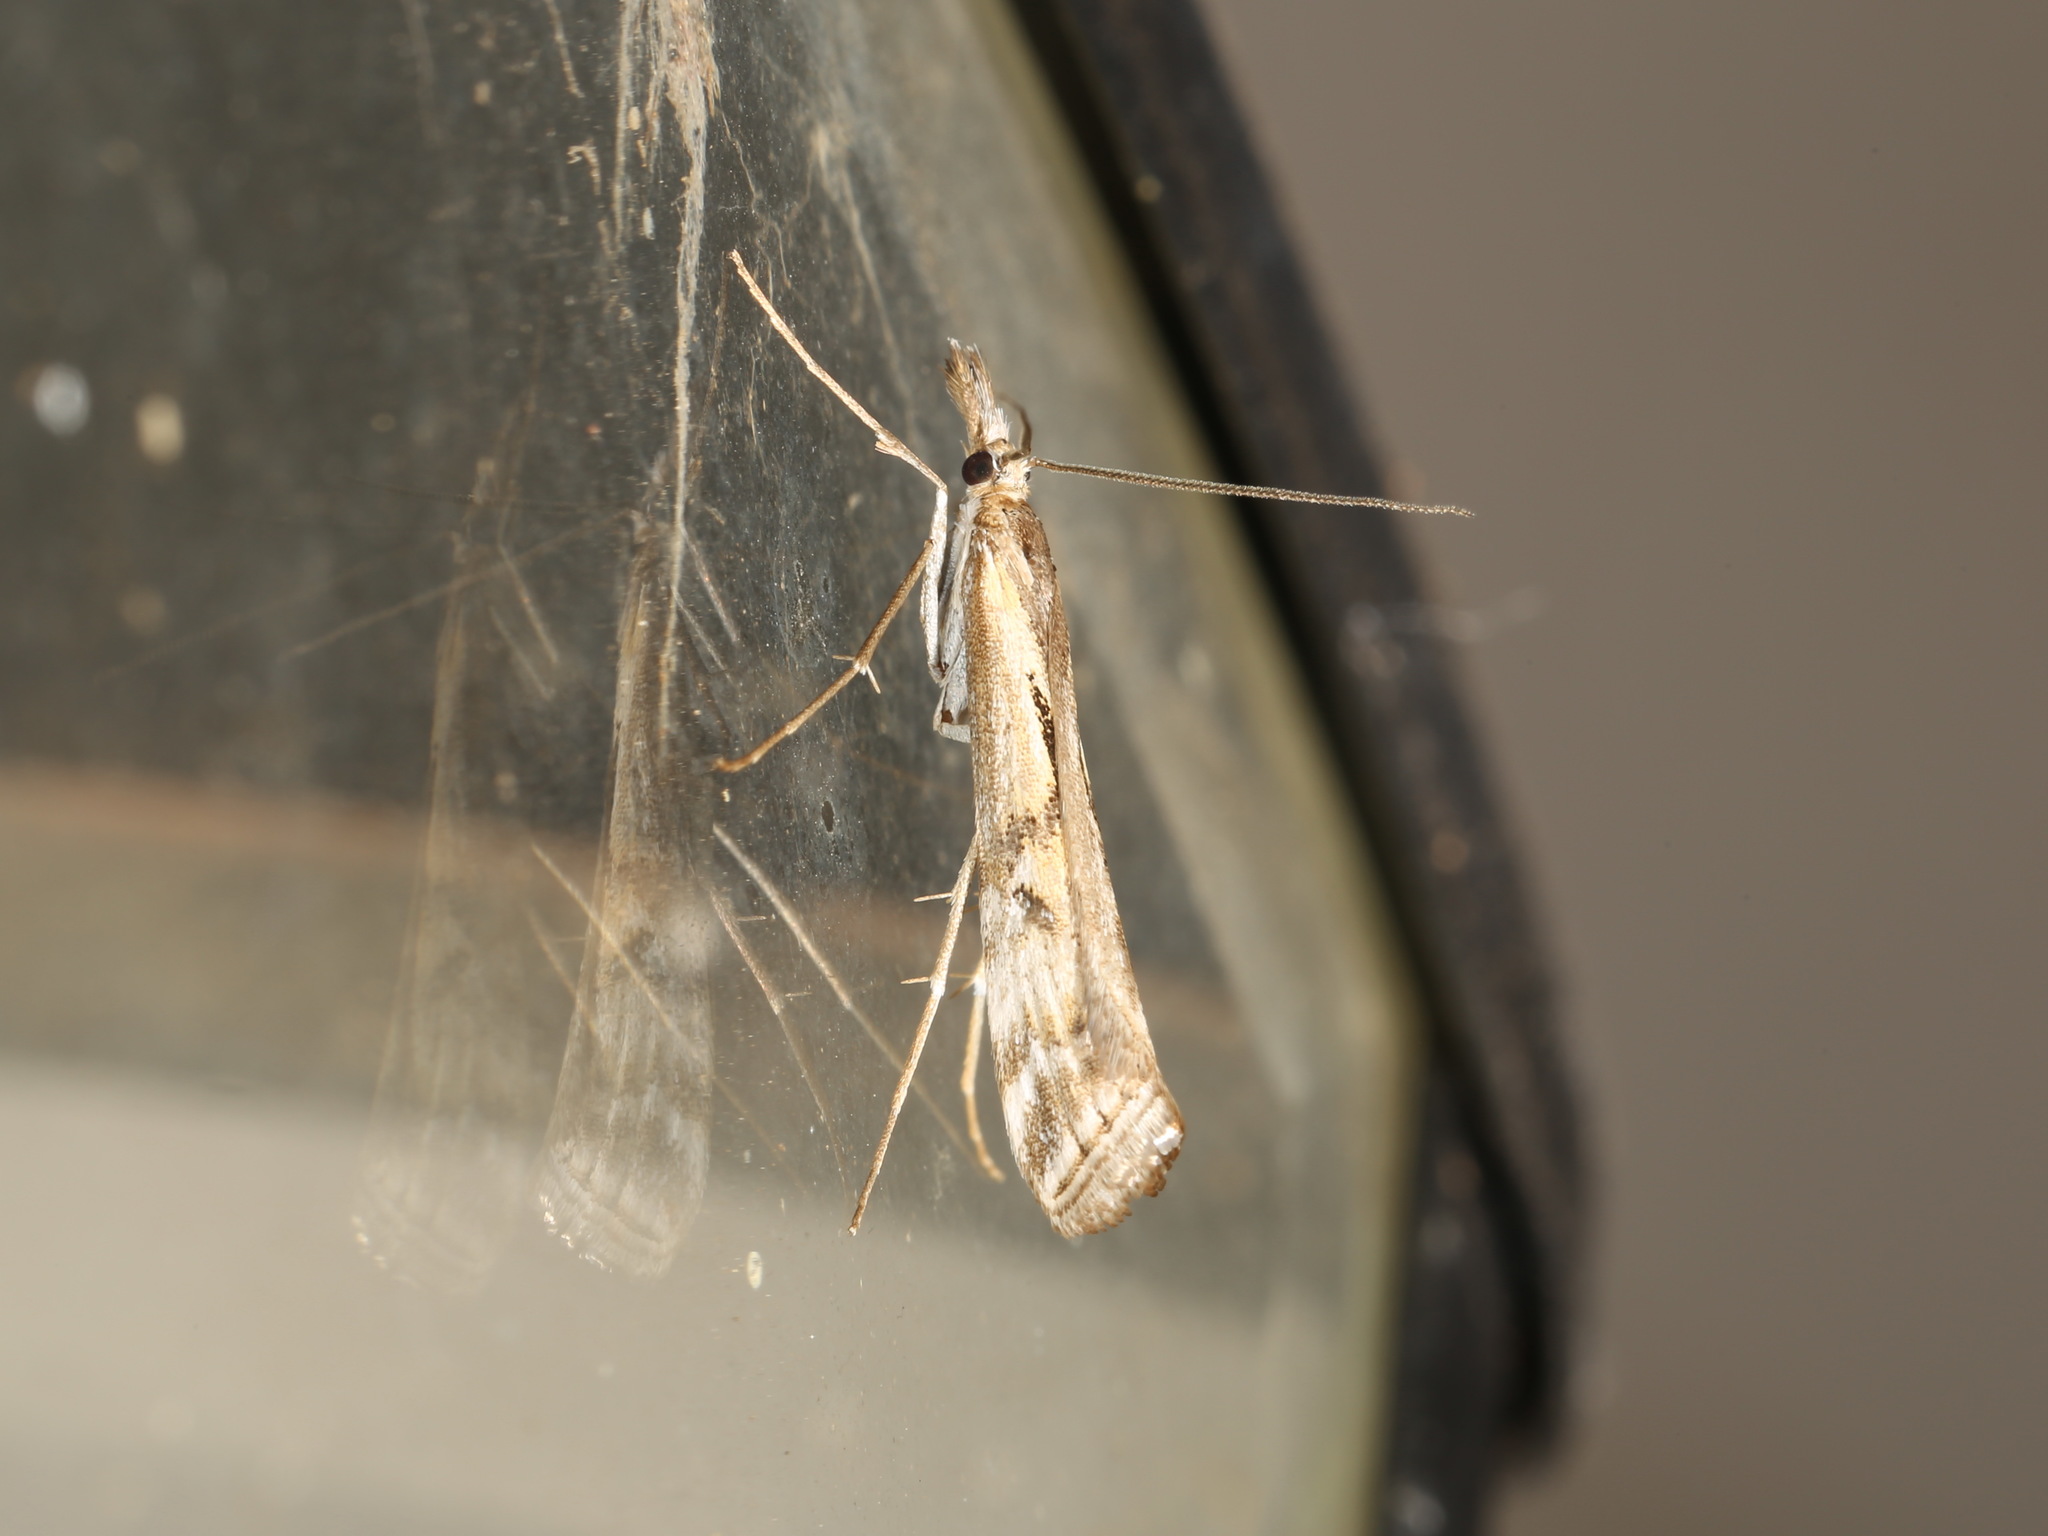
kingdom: Animalia
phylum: Arthropoda
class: Insecta
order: Lepidoptera
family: Crambidae
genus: Hednota
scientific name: Hednota pedionoma
